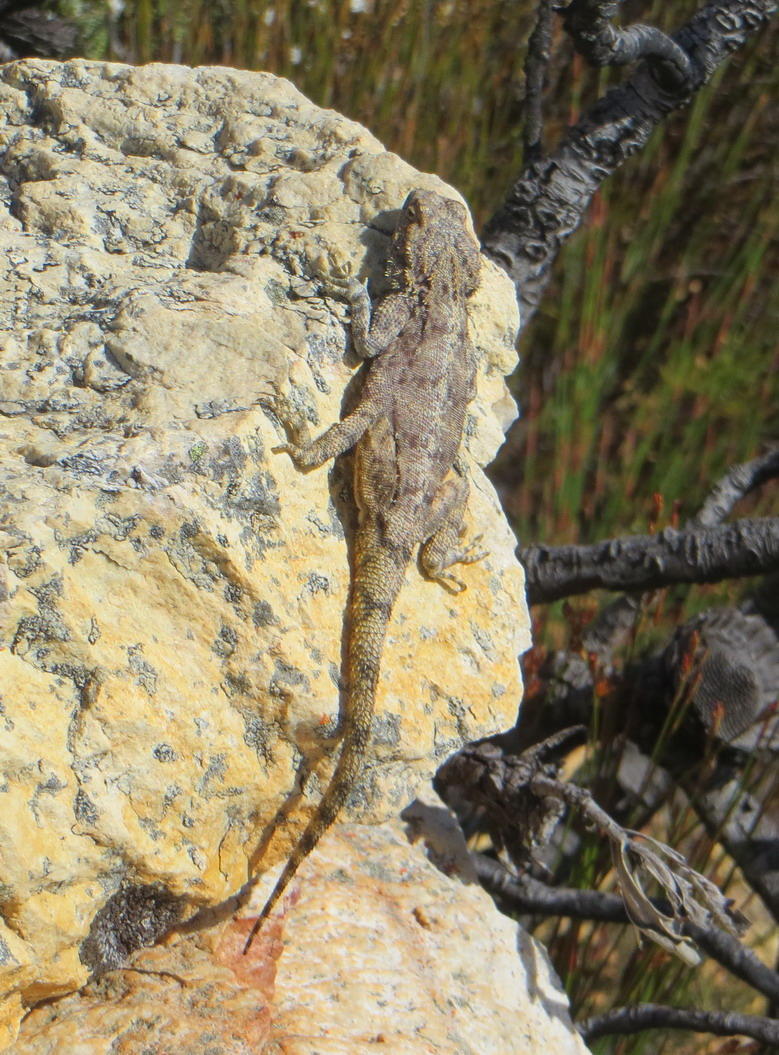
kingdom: Animalia
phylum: Chordata
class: Squamata
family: Agamidae
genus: Agama
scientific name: Agama atra
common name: Southern african rock agama
